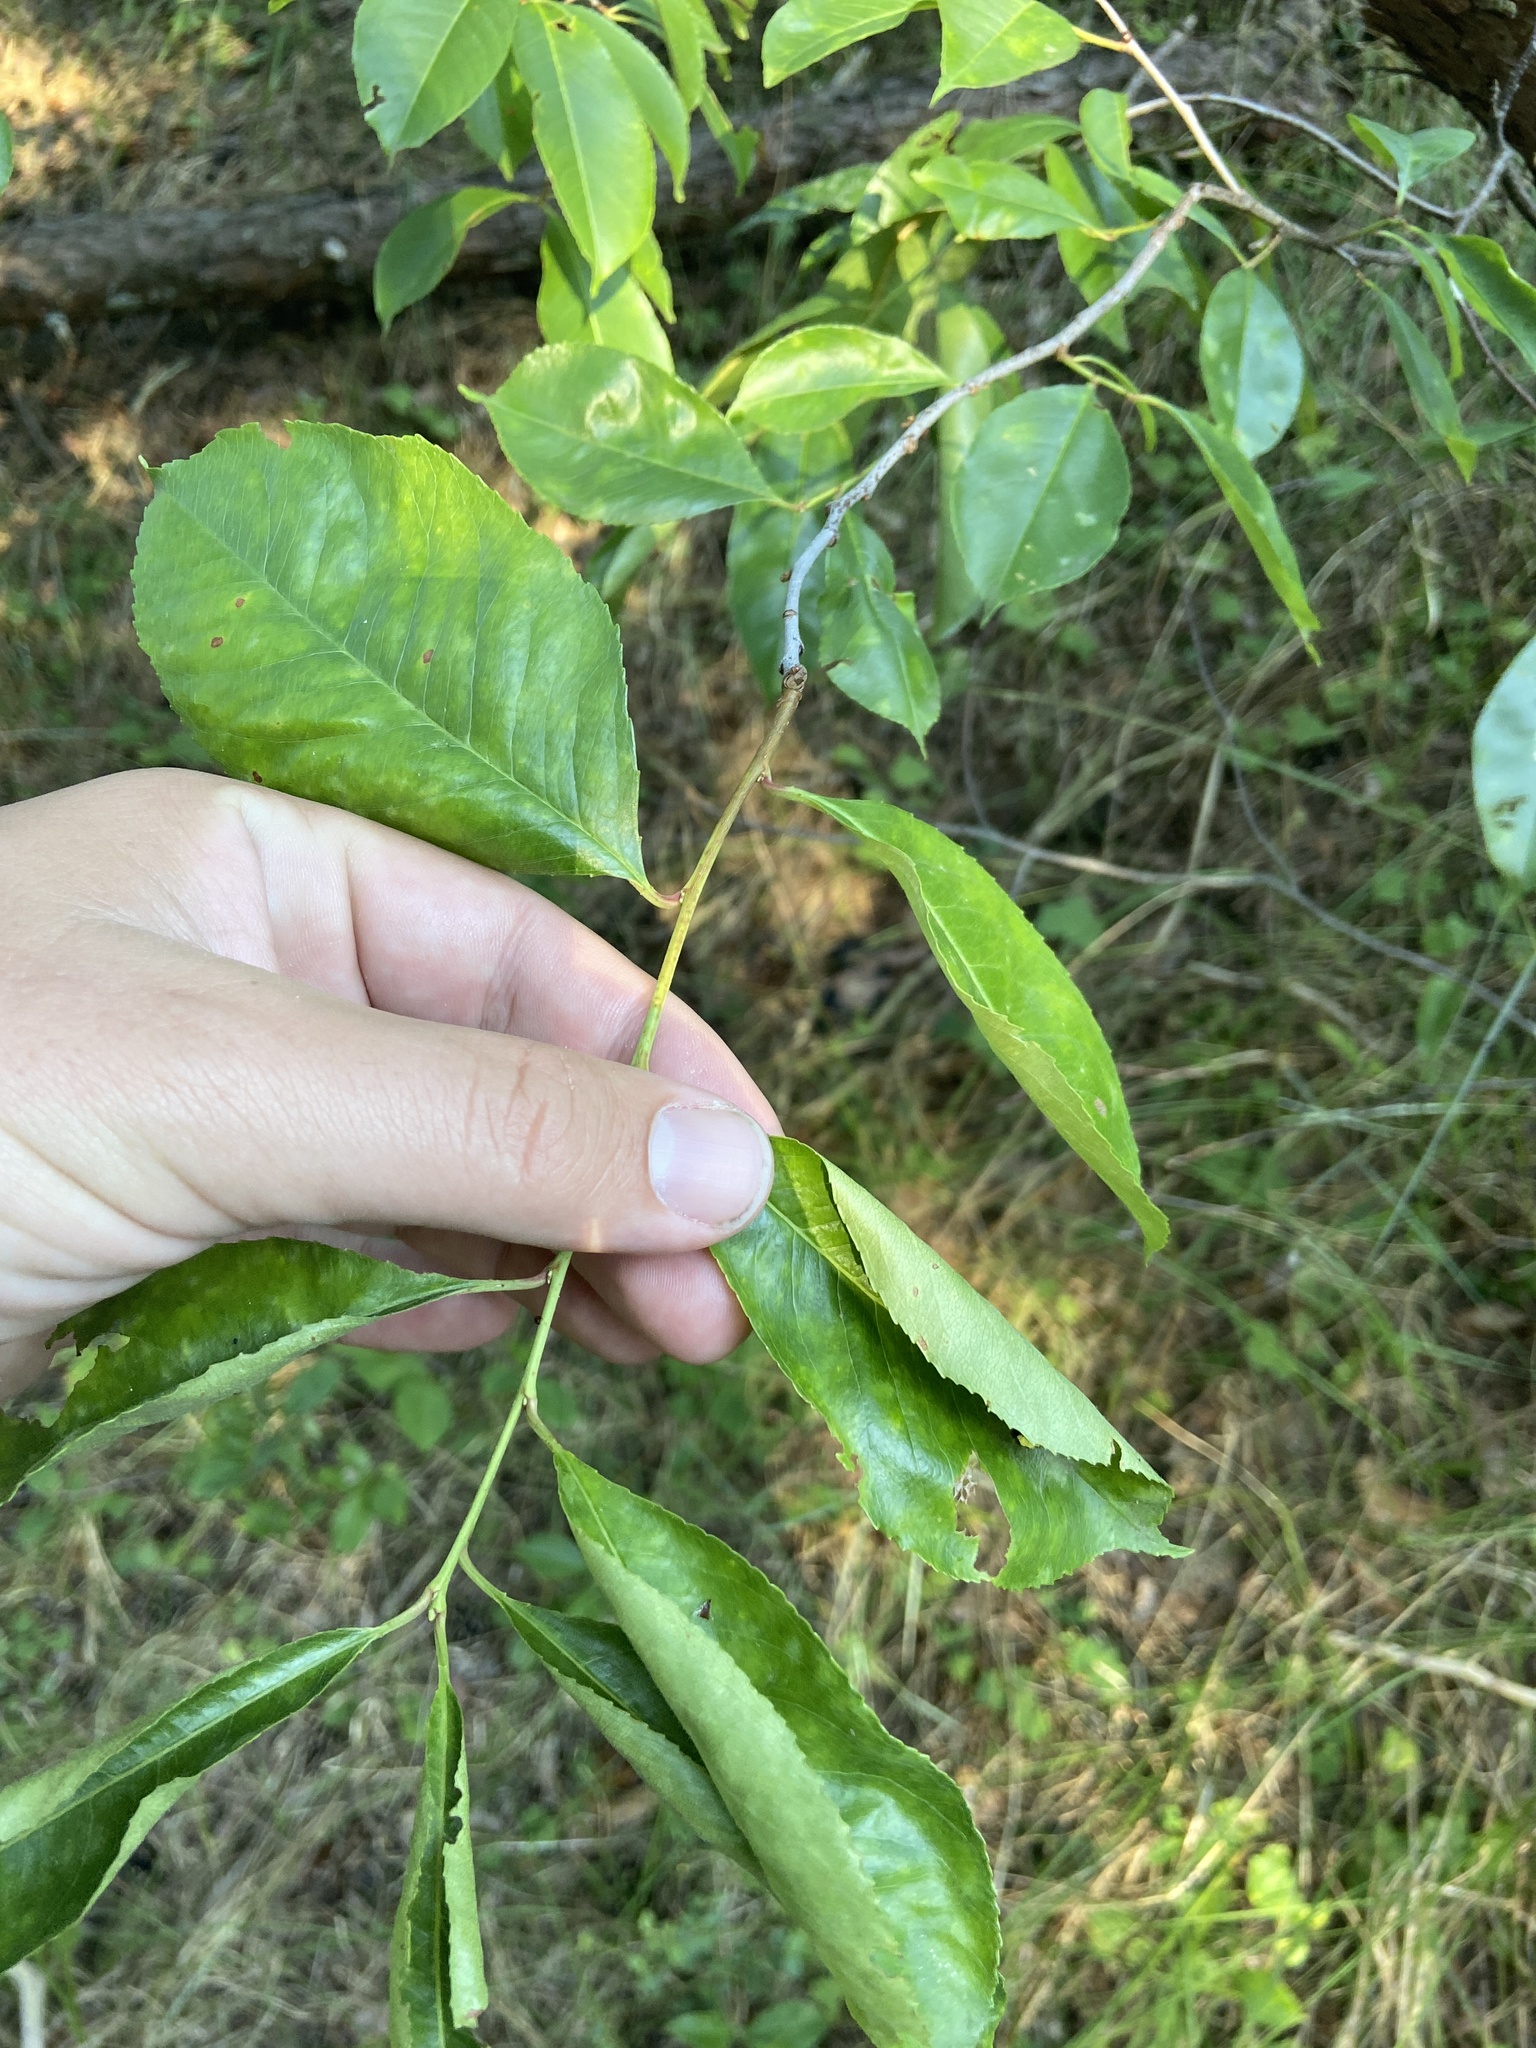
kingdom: Animalia
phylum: Arthropoda
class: Insecta
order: Lepidoptera
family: Noctuidae
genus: Acronicta
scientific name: Acronicta psi
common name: Grey dagger
